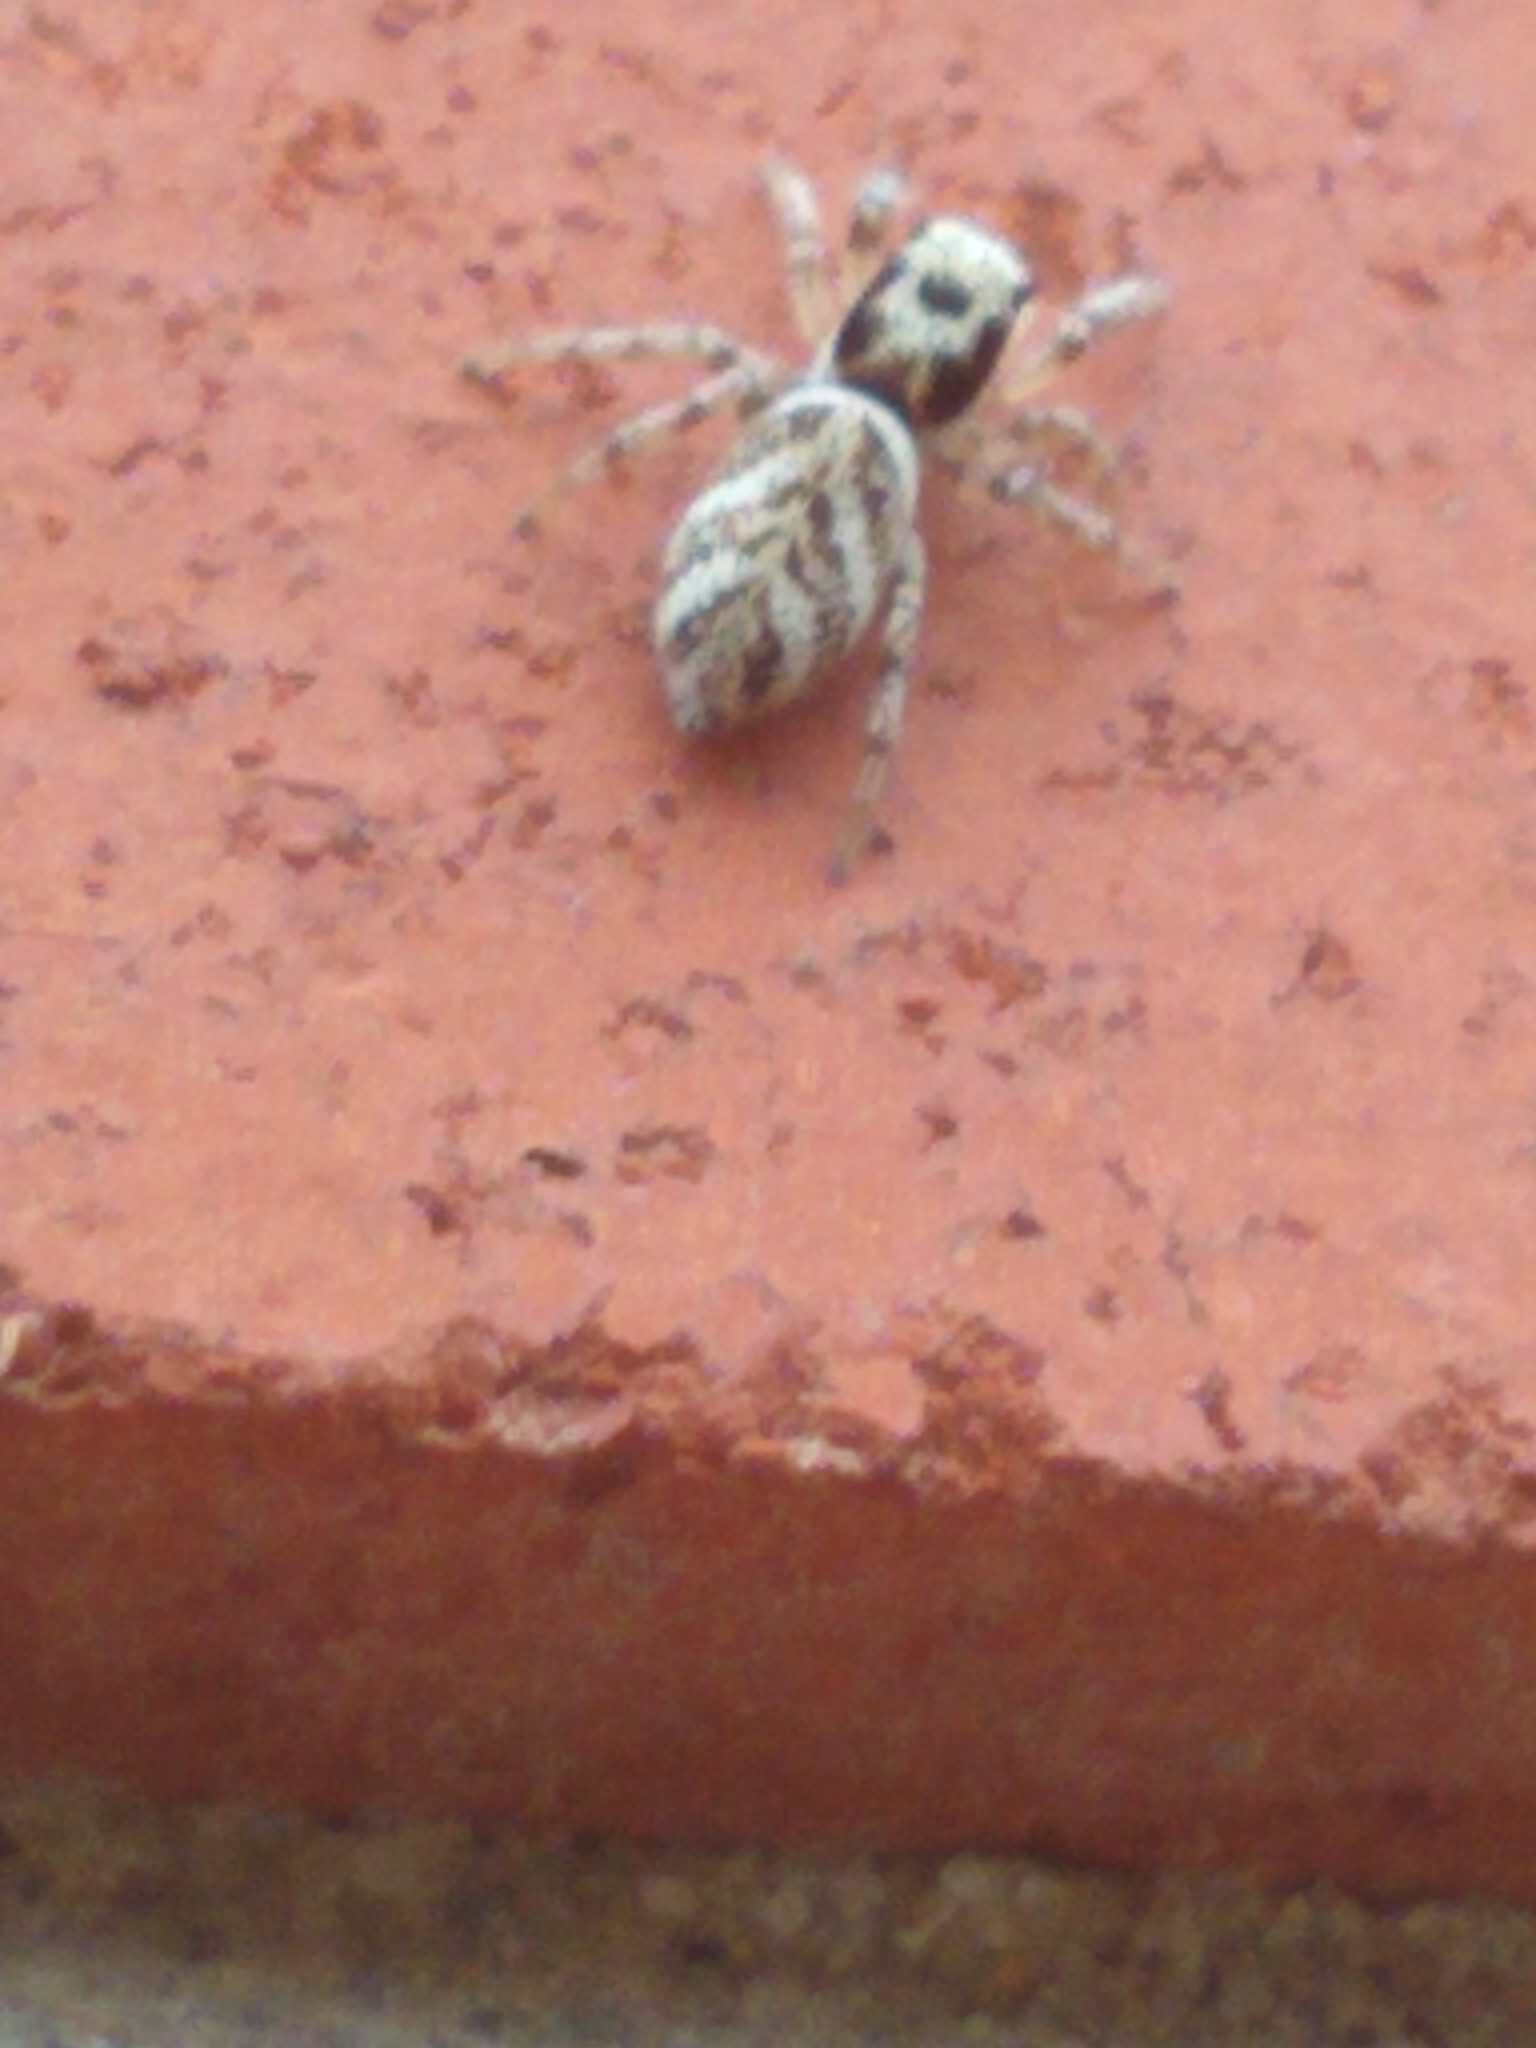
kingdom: Animalia
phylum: Arthropoda
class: Arachnida
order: Araneae
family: Salticidae
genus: Salticus
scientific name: Salticus scenicus
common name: Zebra jumper
